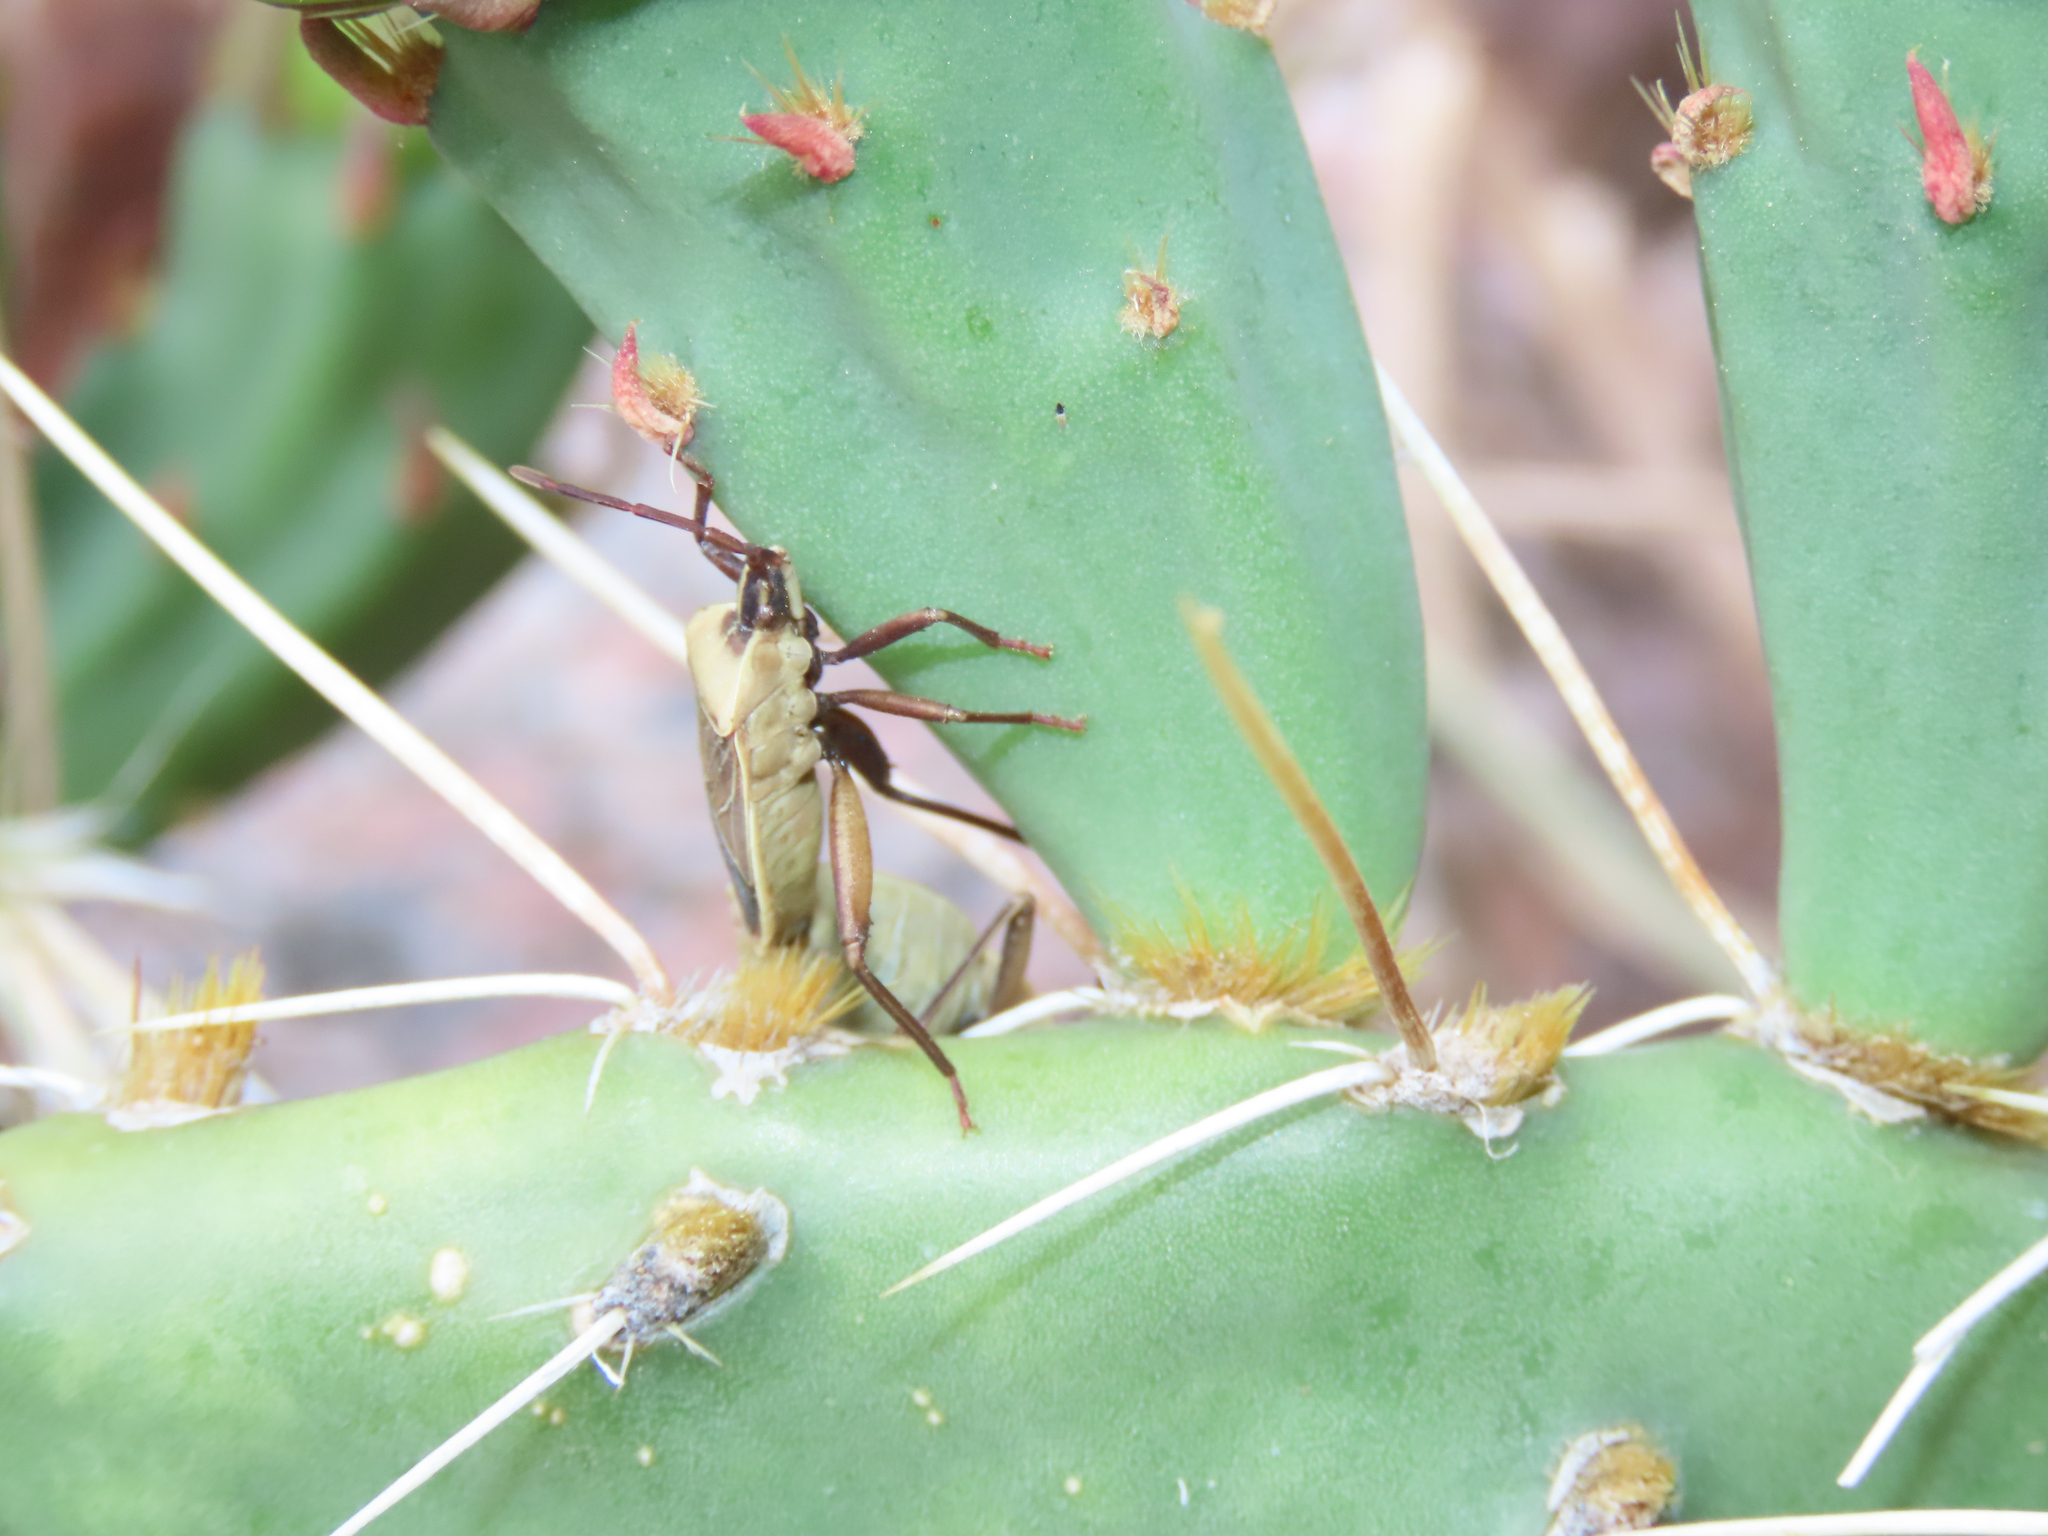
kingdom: Animalia
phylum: Arthropoda
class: Insecta
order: Hemiptera
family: Coreidae
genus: Chelinidea
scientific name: Chelinidea vittiger
